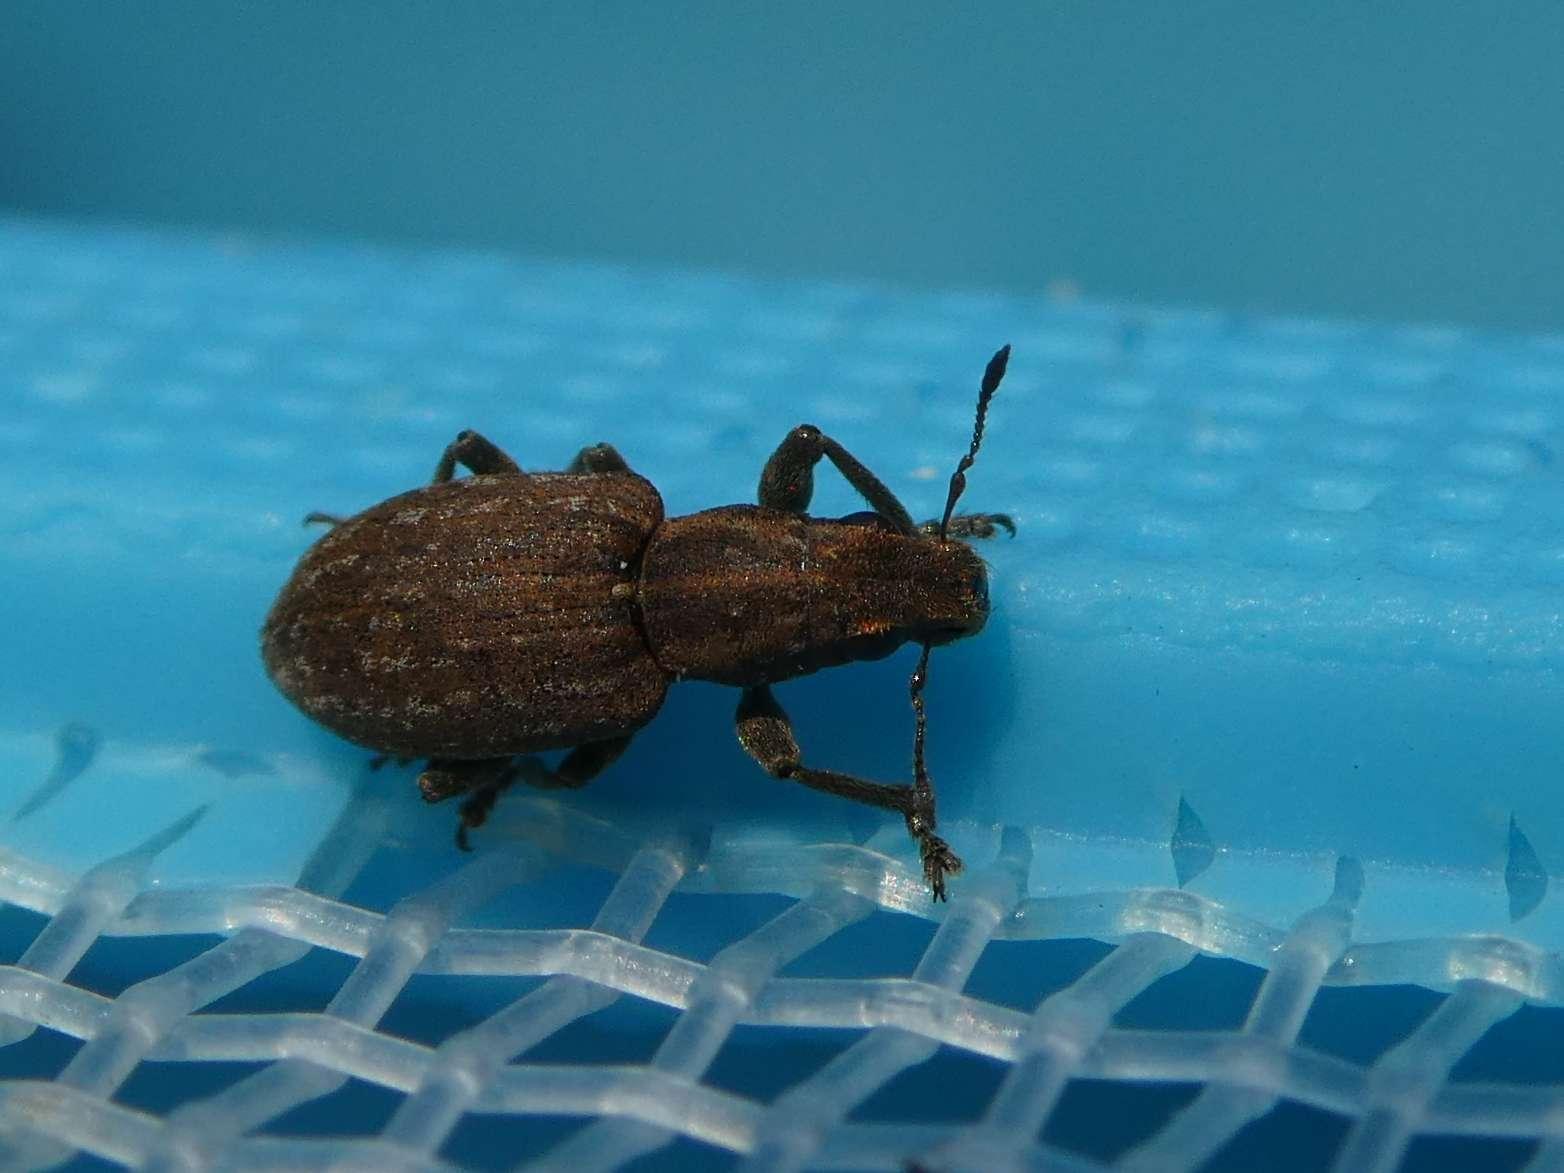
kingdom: Animalia
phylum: Arthropoda
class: Insecta
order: Coleoptera
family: Curculionidae
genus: Sitona
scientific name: Sitona obsoletus
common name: Weevil
